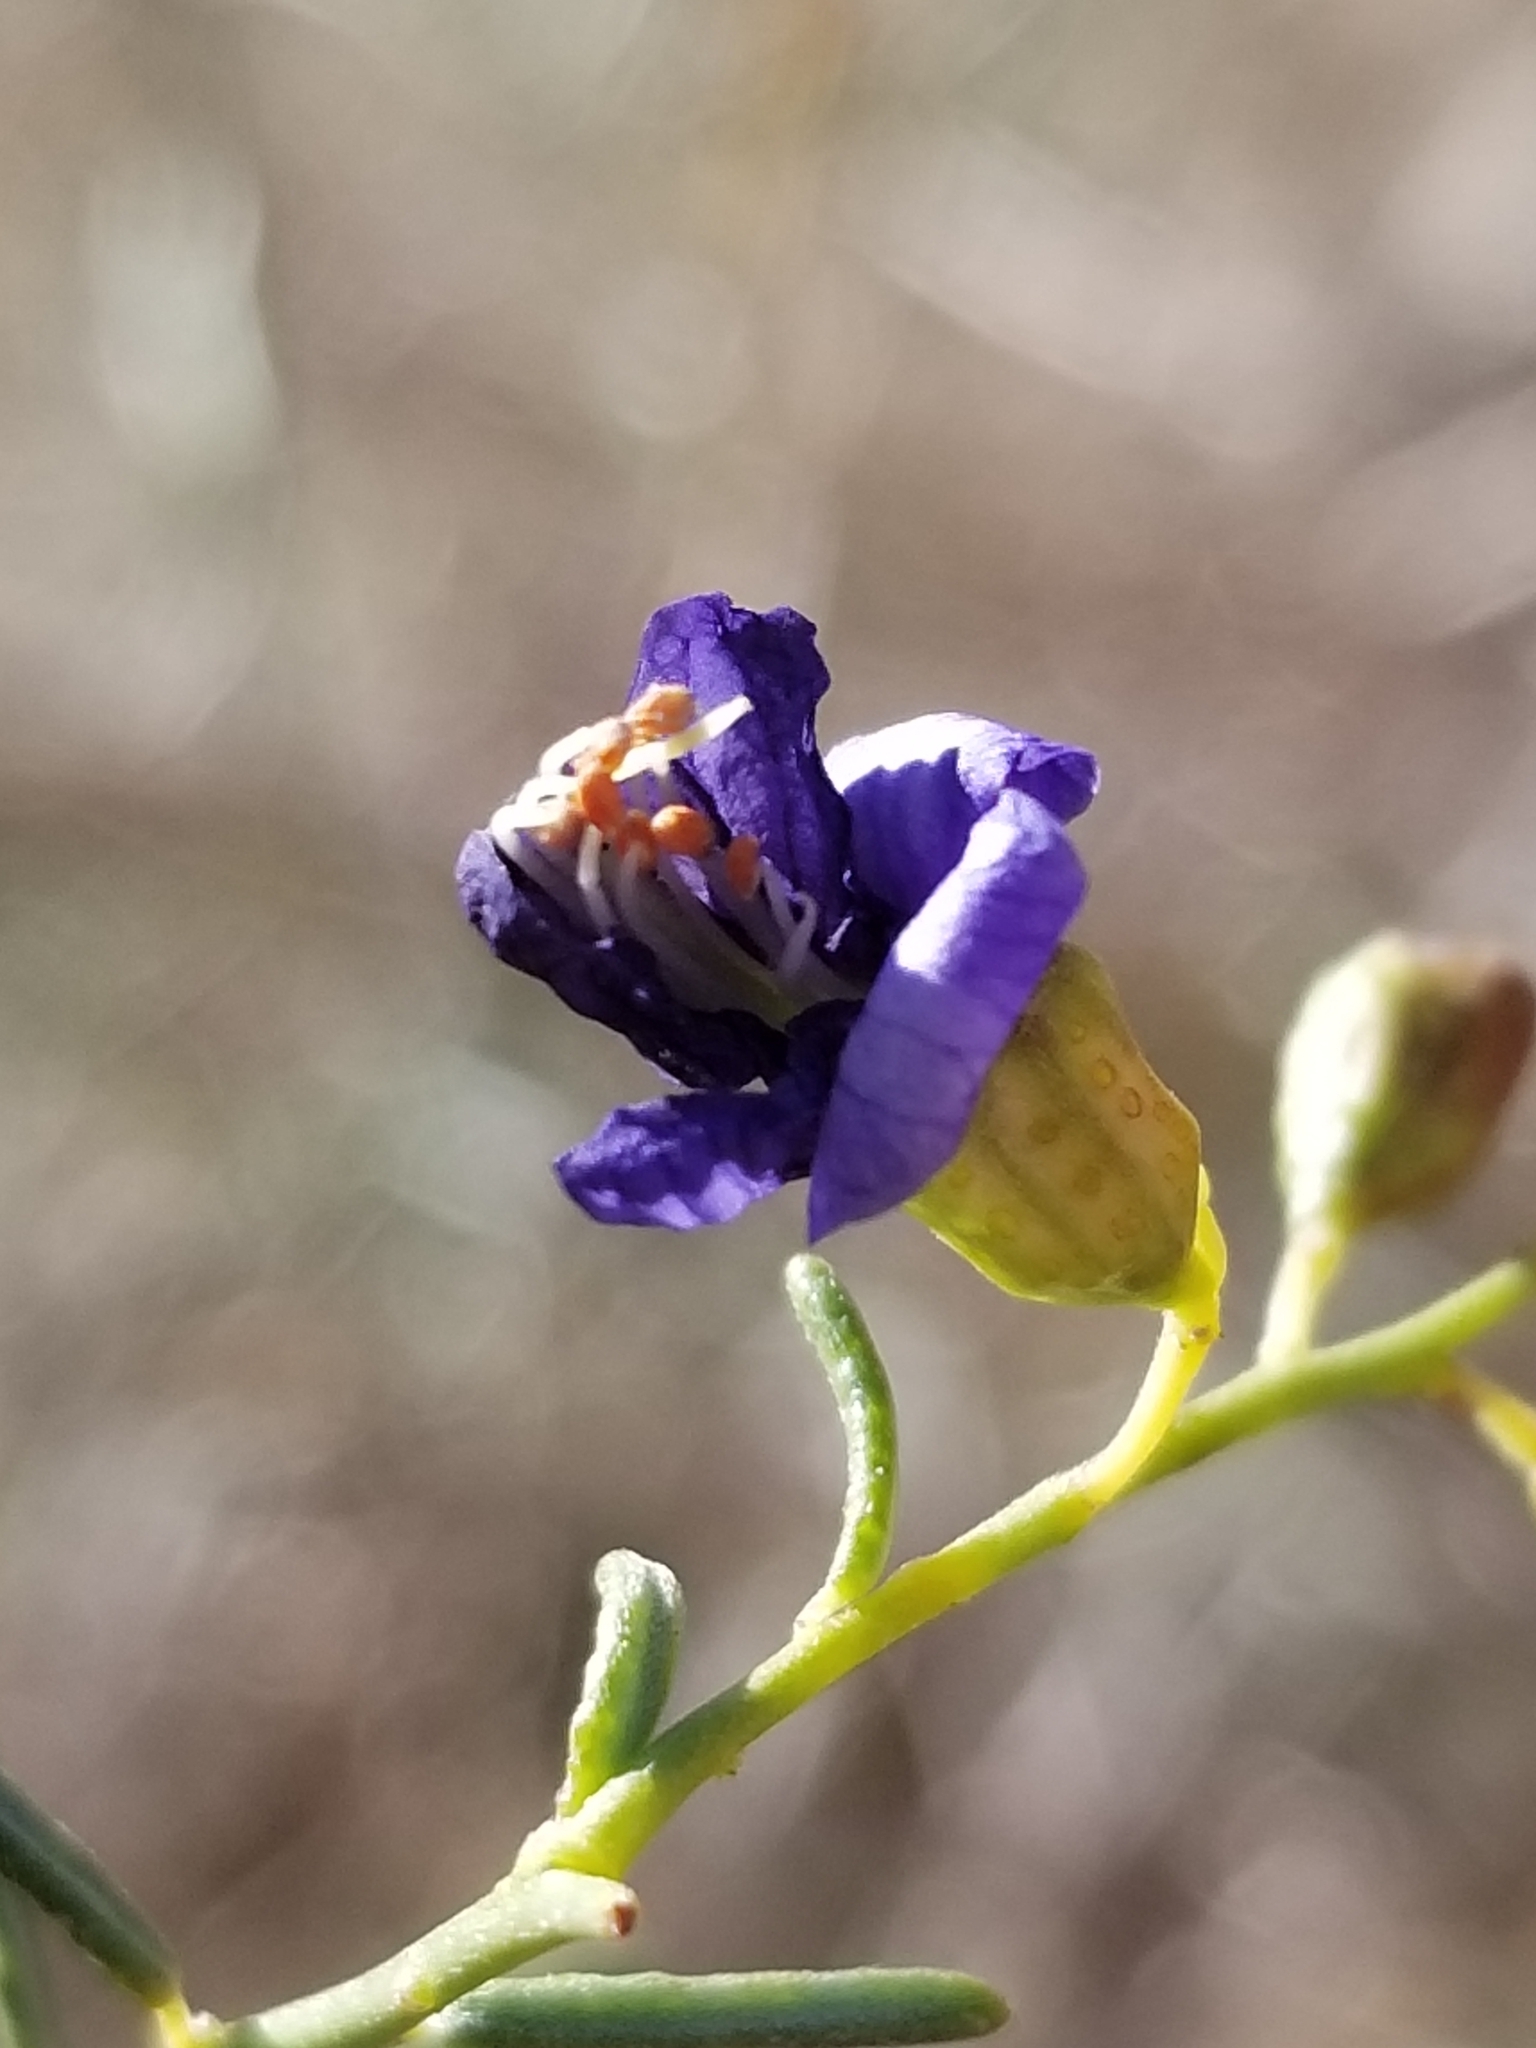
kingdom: Plantae
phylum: Tracheophyta
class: Magnoliopsida
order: Fabales
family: Fabaceae
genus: Psorothamnus
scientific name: Psorothamnus schottii
